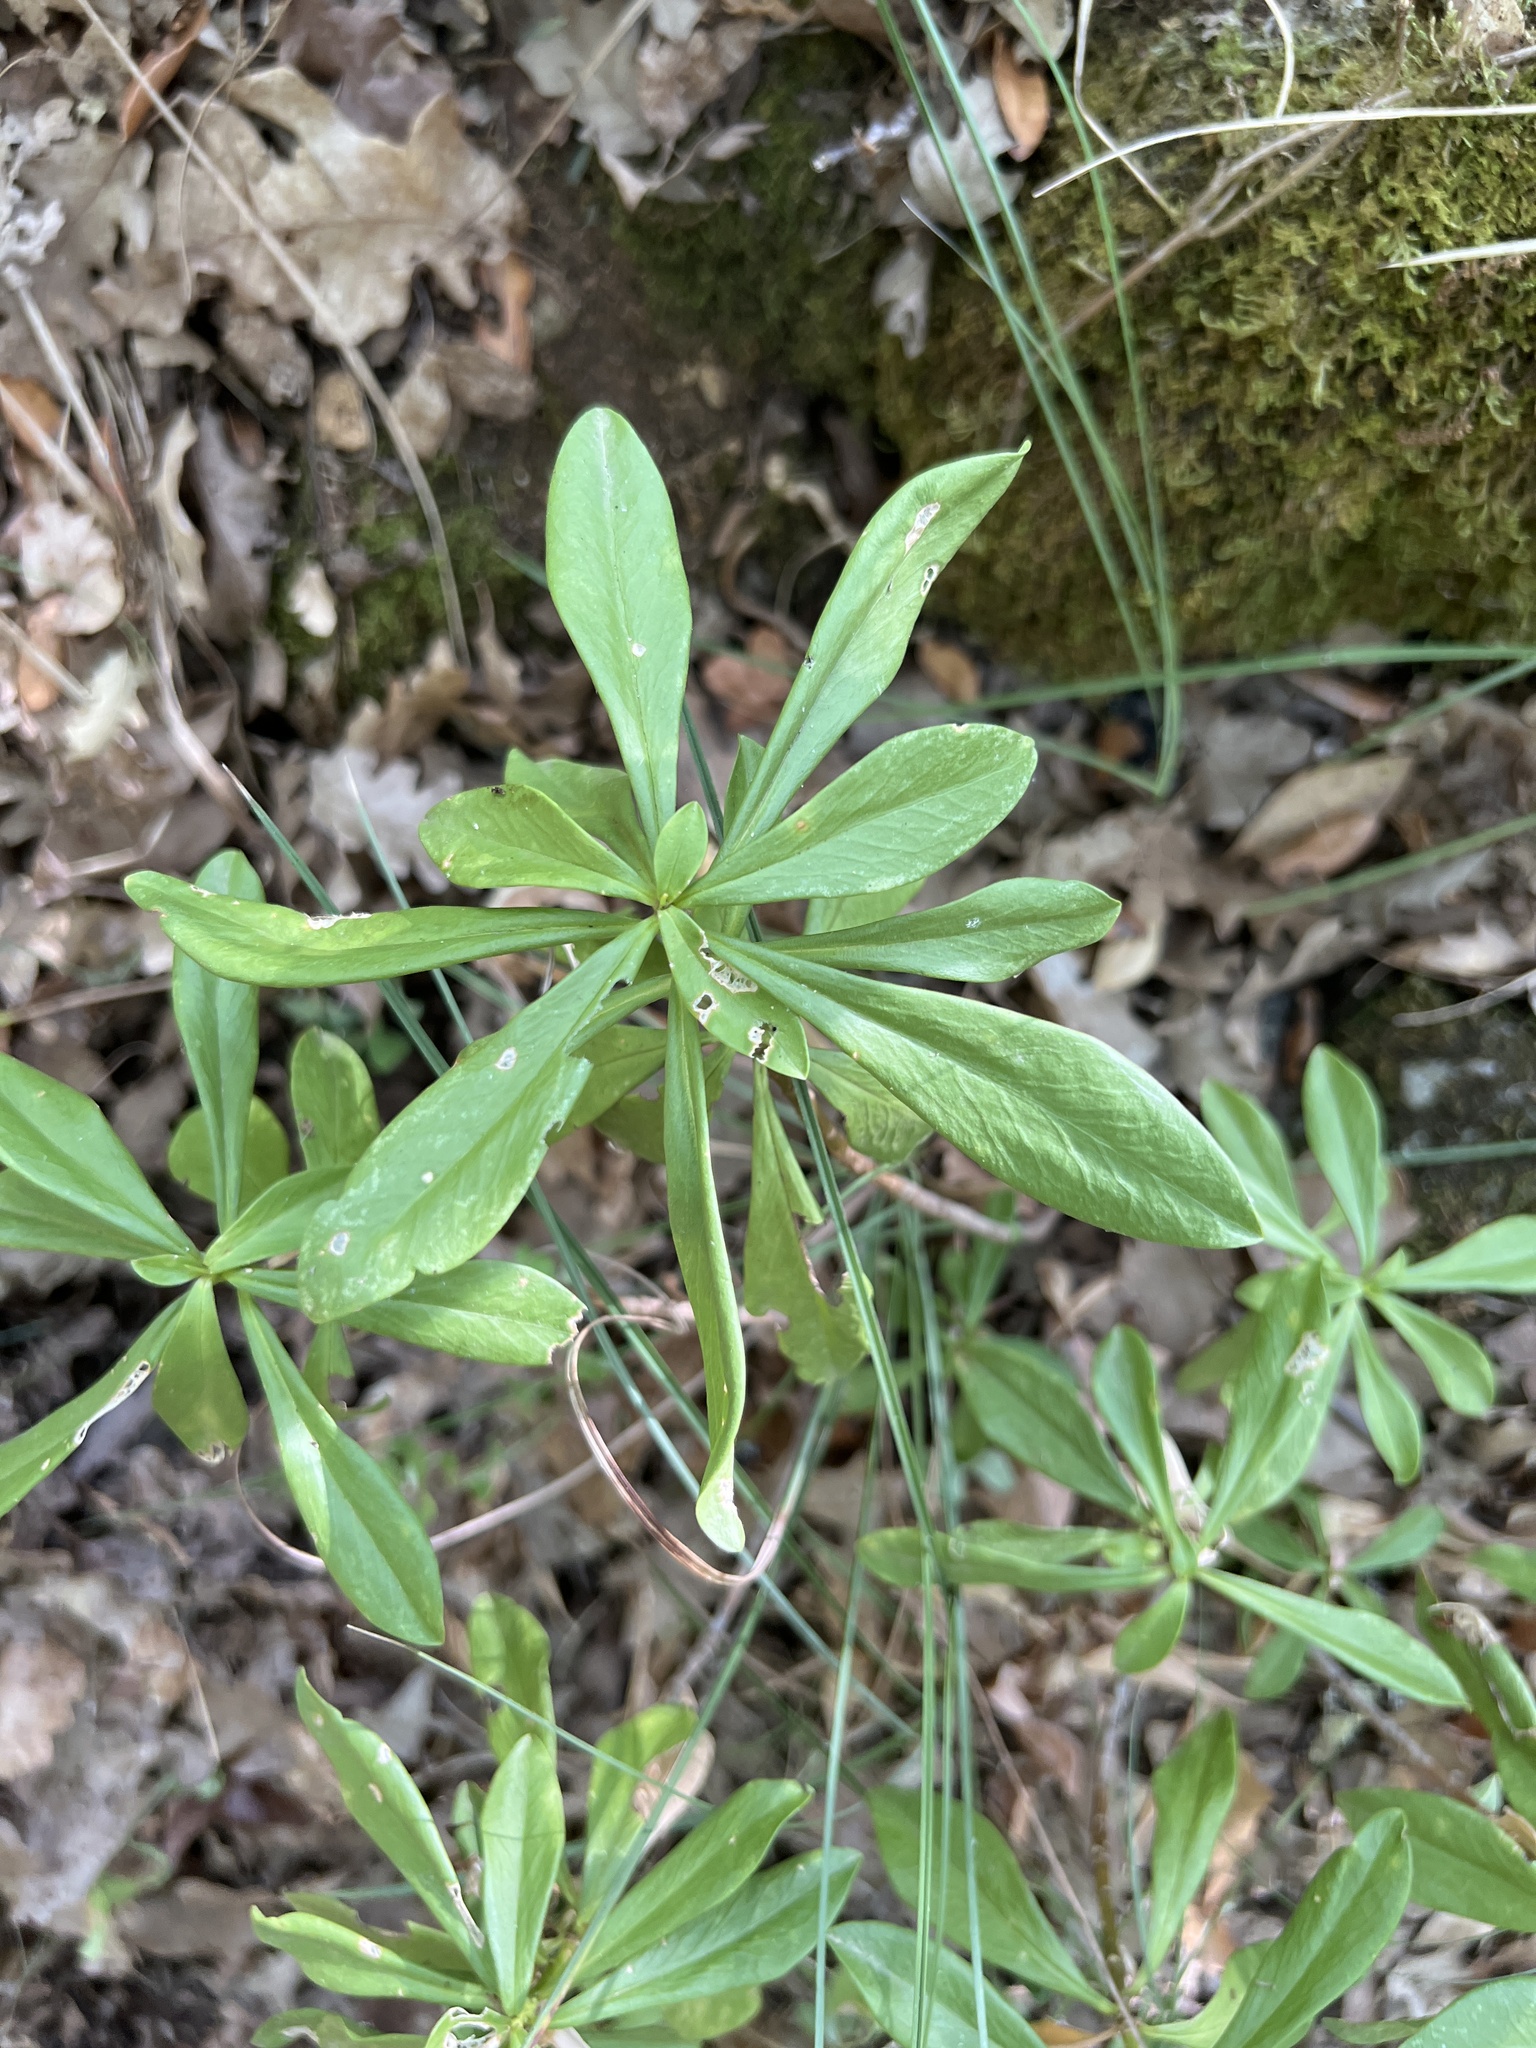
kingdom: Plantae
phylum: Tracheophyta
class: Magnoliopsida
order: Malvales
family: Thymelaeaceae
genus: Daphne
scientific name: Daphne laureola
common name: Spurge-laurel
